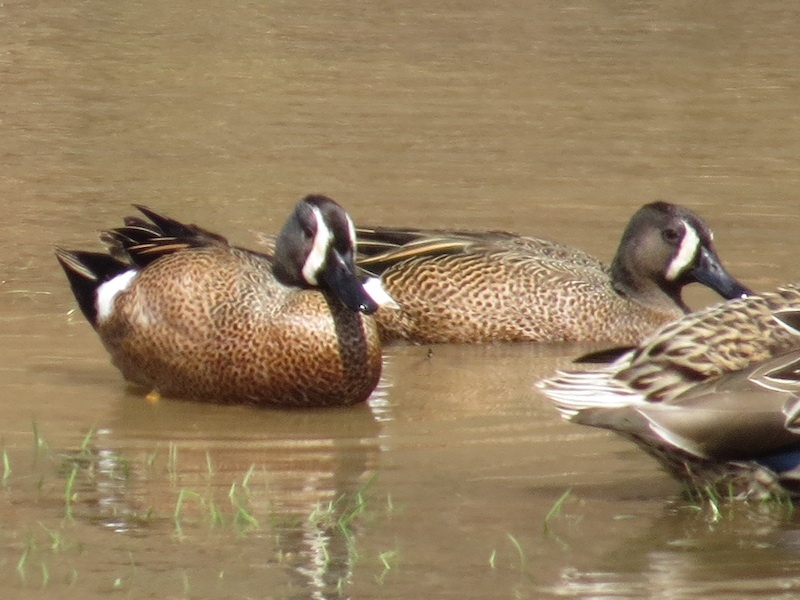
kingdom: Animalia
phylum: Chordata
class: Aves
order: Anseriformes
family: Anatidae
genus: Spatula
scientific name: Spatula discors
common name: Blue-winged teal
